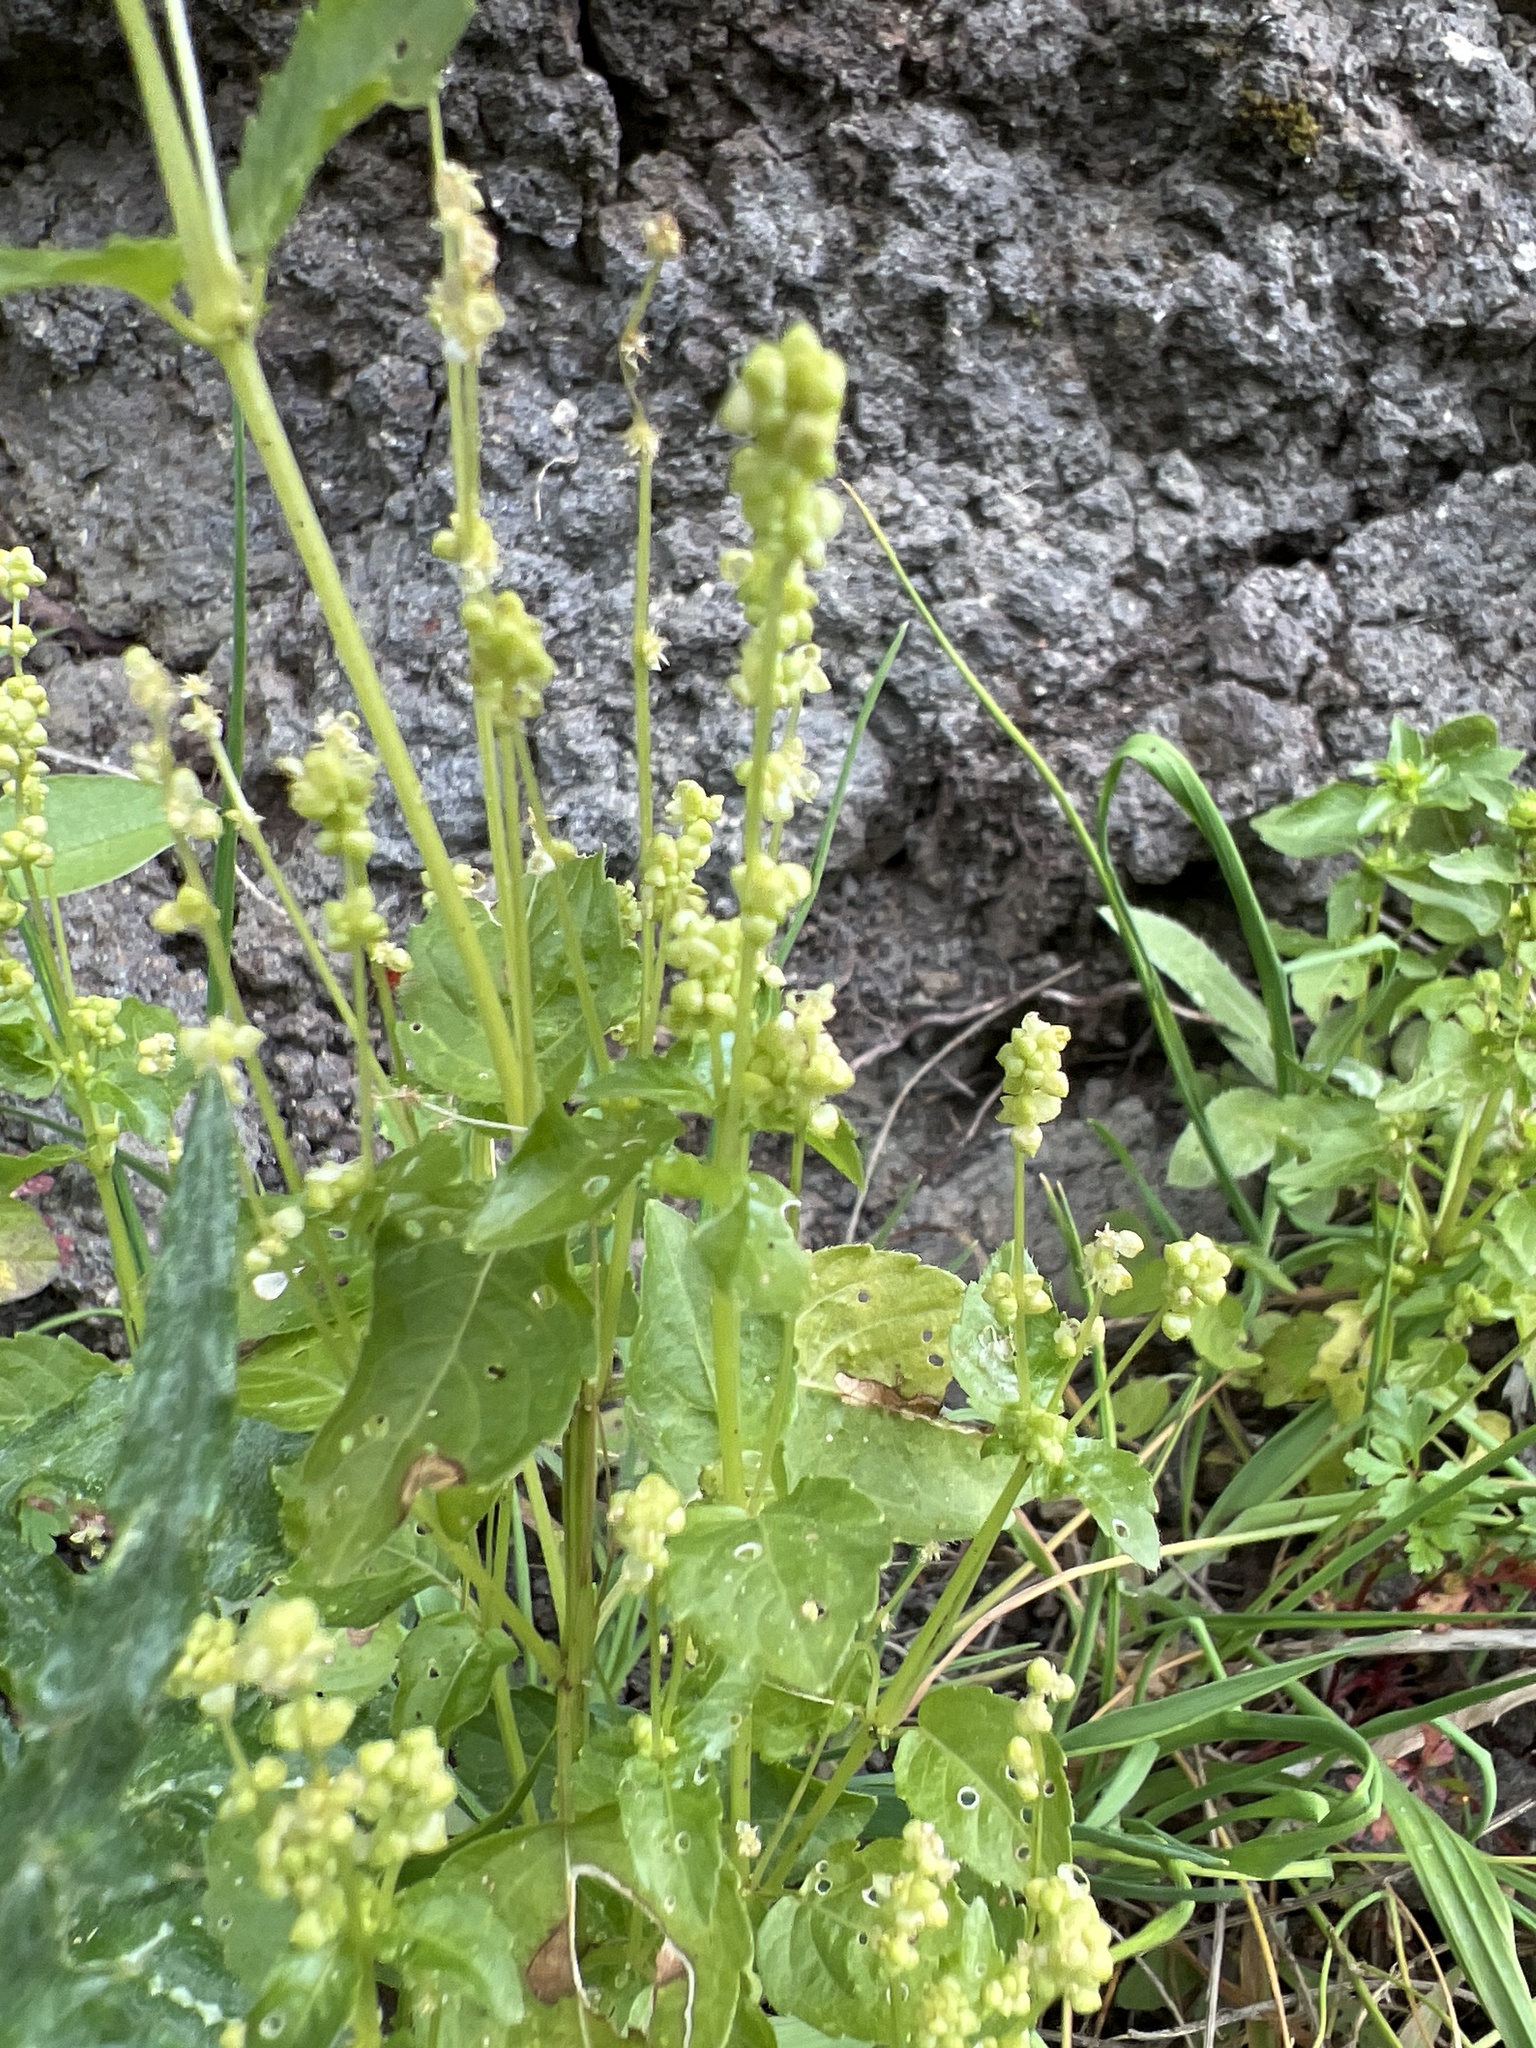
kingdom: Plantae
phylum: Tracheophyta
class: Magnoliopsida
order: Malpighiales
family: Euphorbiaceae
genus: Mercurialis
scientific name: Mercurialis annua
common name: Annual mercury
